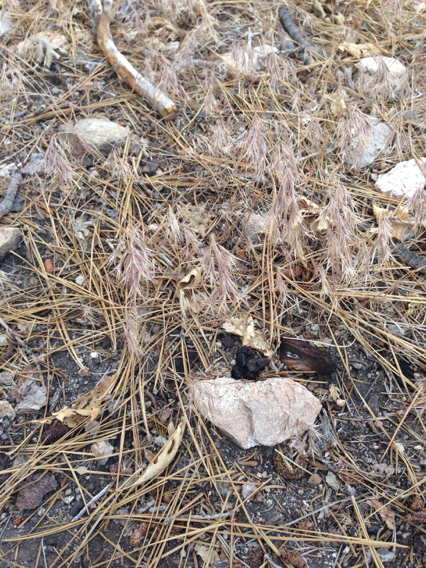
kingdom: Plantae
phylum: Tracheophyta
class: Liliopsida
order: Poales
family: Poaceae
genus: Bromus
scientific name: Bromus tectorum
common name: Cheatgrass
